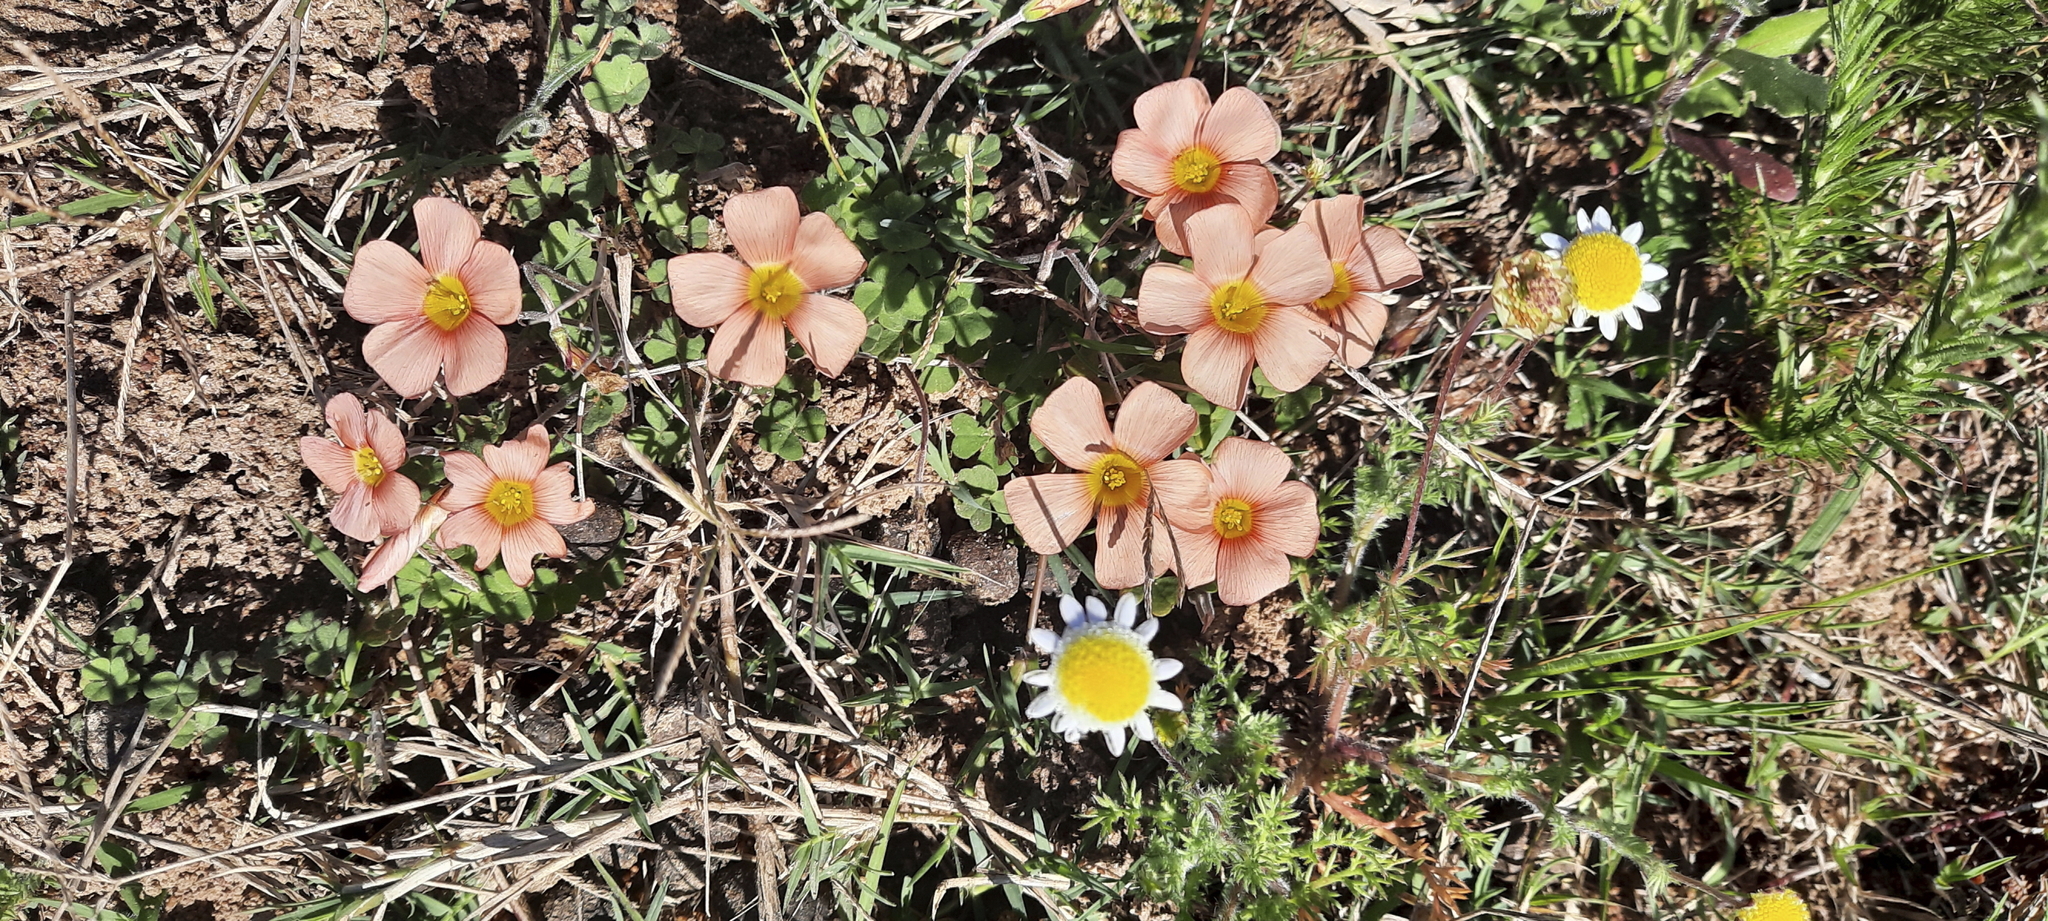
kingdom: Plantae
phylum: Tracheophyta
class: Magnoliopsida
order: Oxalidales
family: Oxalidaceae
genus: Oxalis
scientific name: Oxalis obtusa
